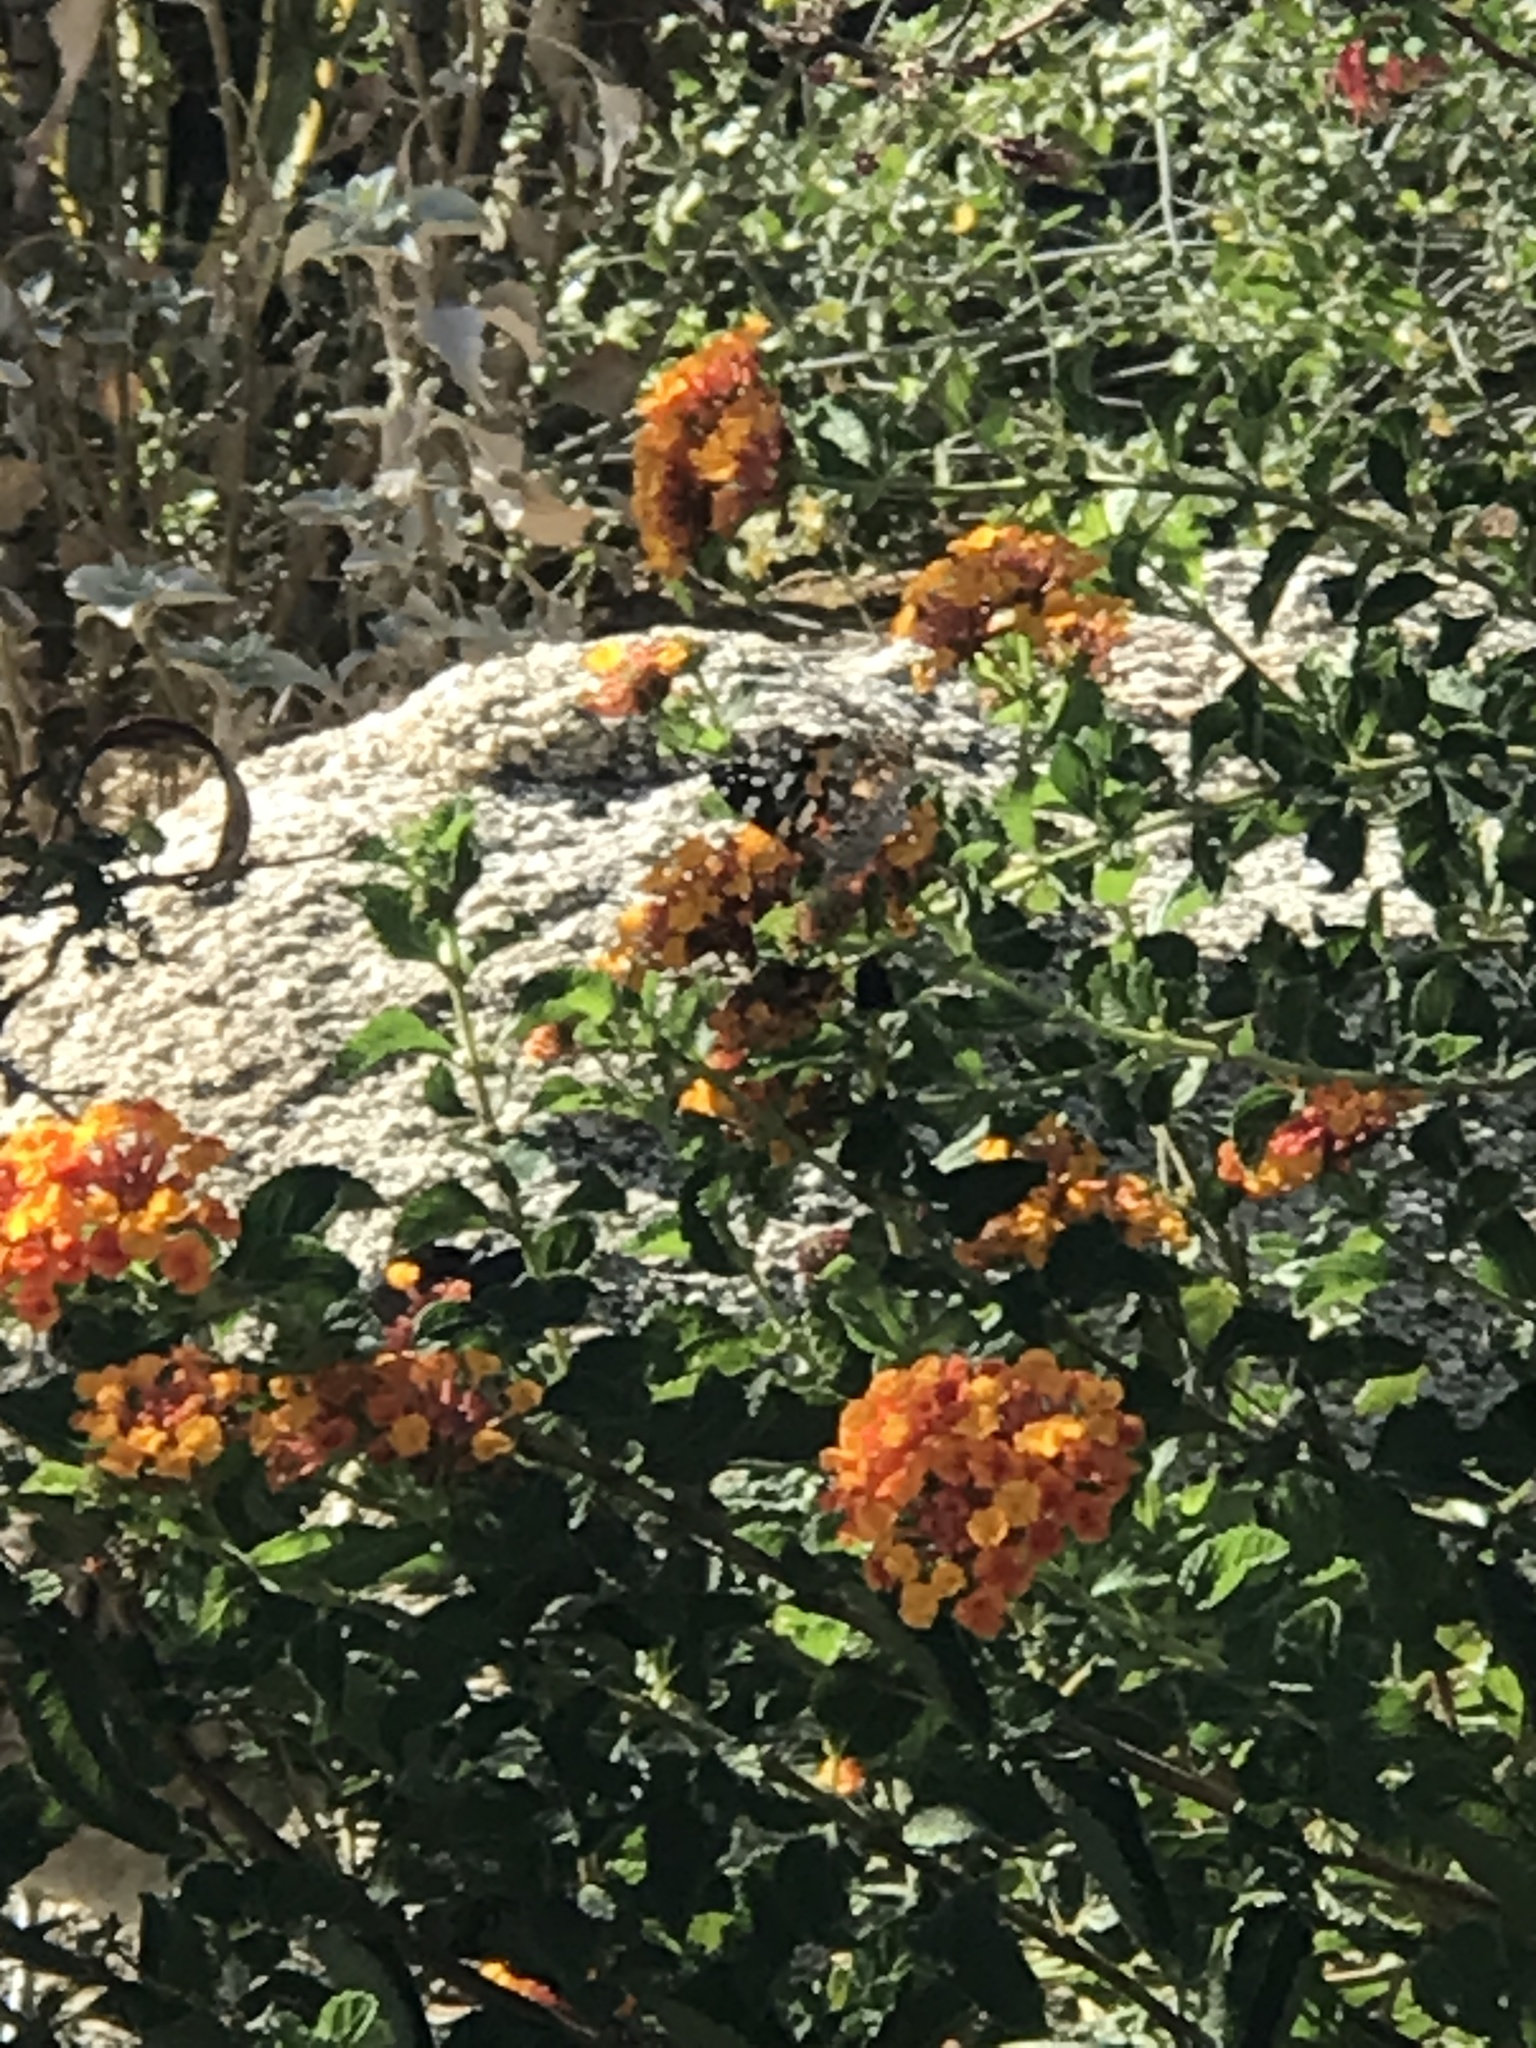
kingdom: Animalia
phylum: Arthropoda
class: Insecta
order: Lepidoptera
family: Nymphalidae
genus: Vanessa
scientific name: Vanessa cardui
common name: Painted lady
